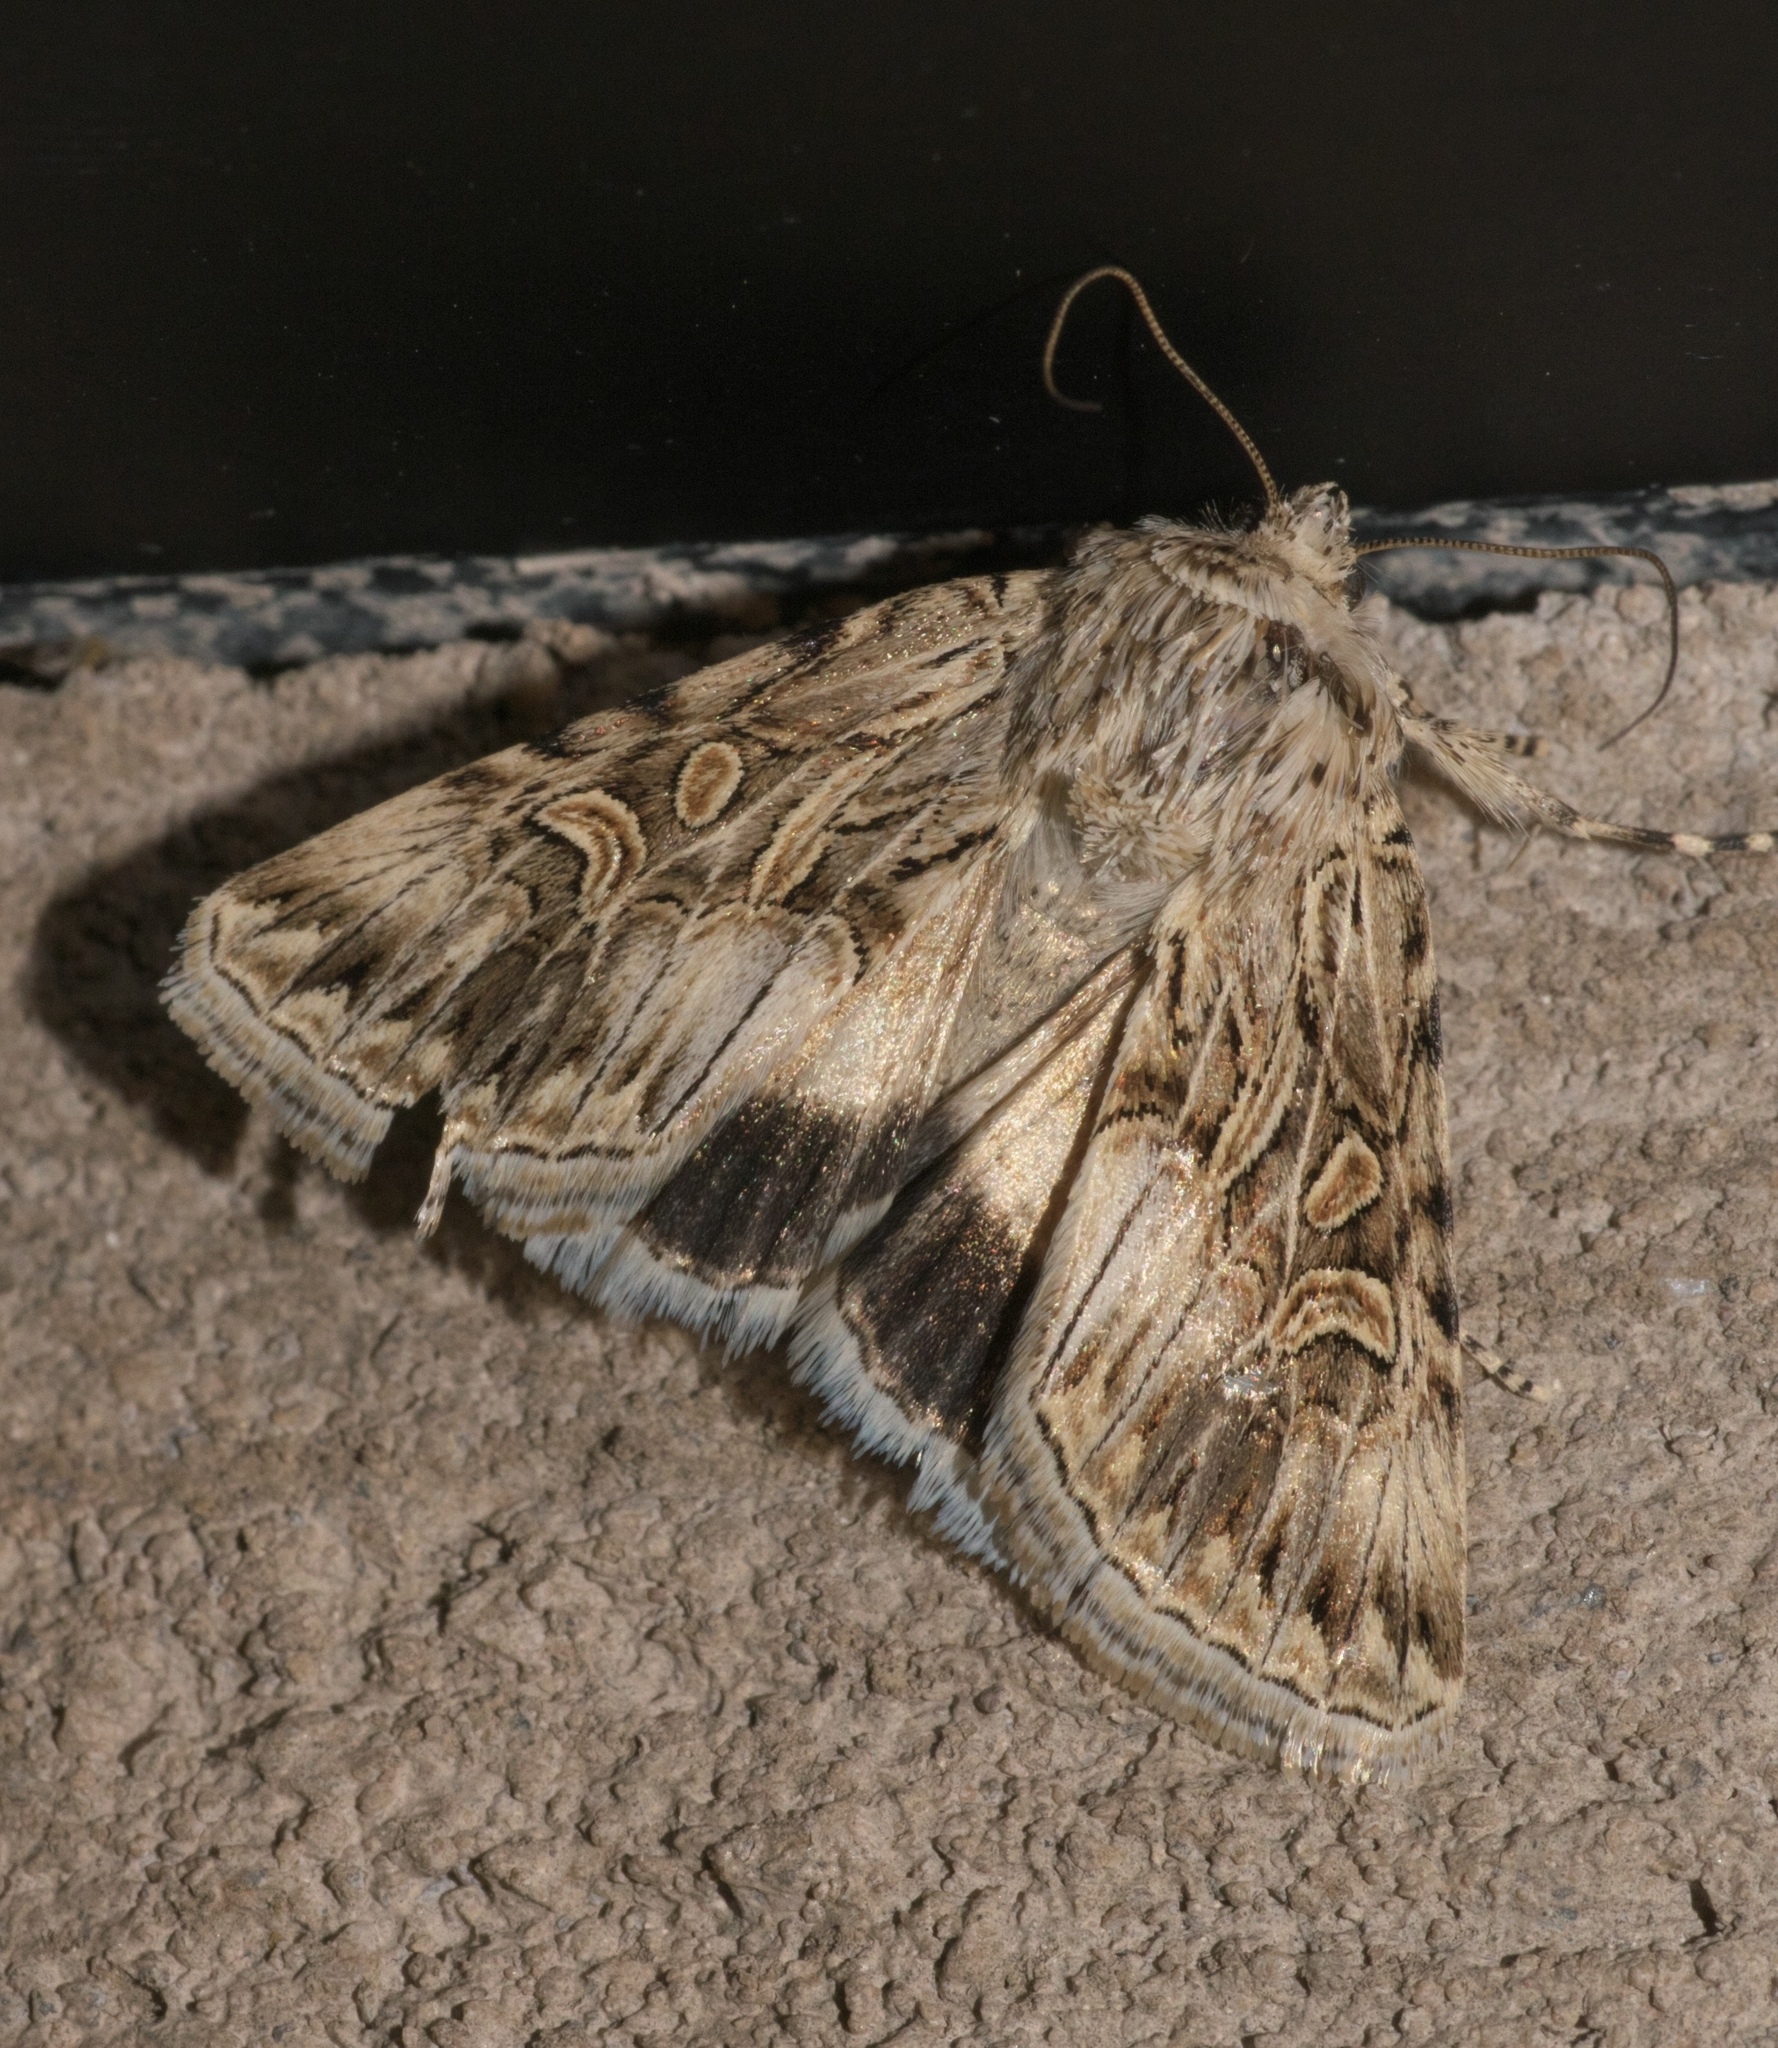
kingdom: Animalia
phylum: Arthropoda
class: Insecta
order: Lepidoptera
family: Noctuidae
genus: Sympistis
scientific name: Sympistis levis
